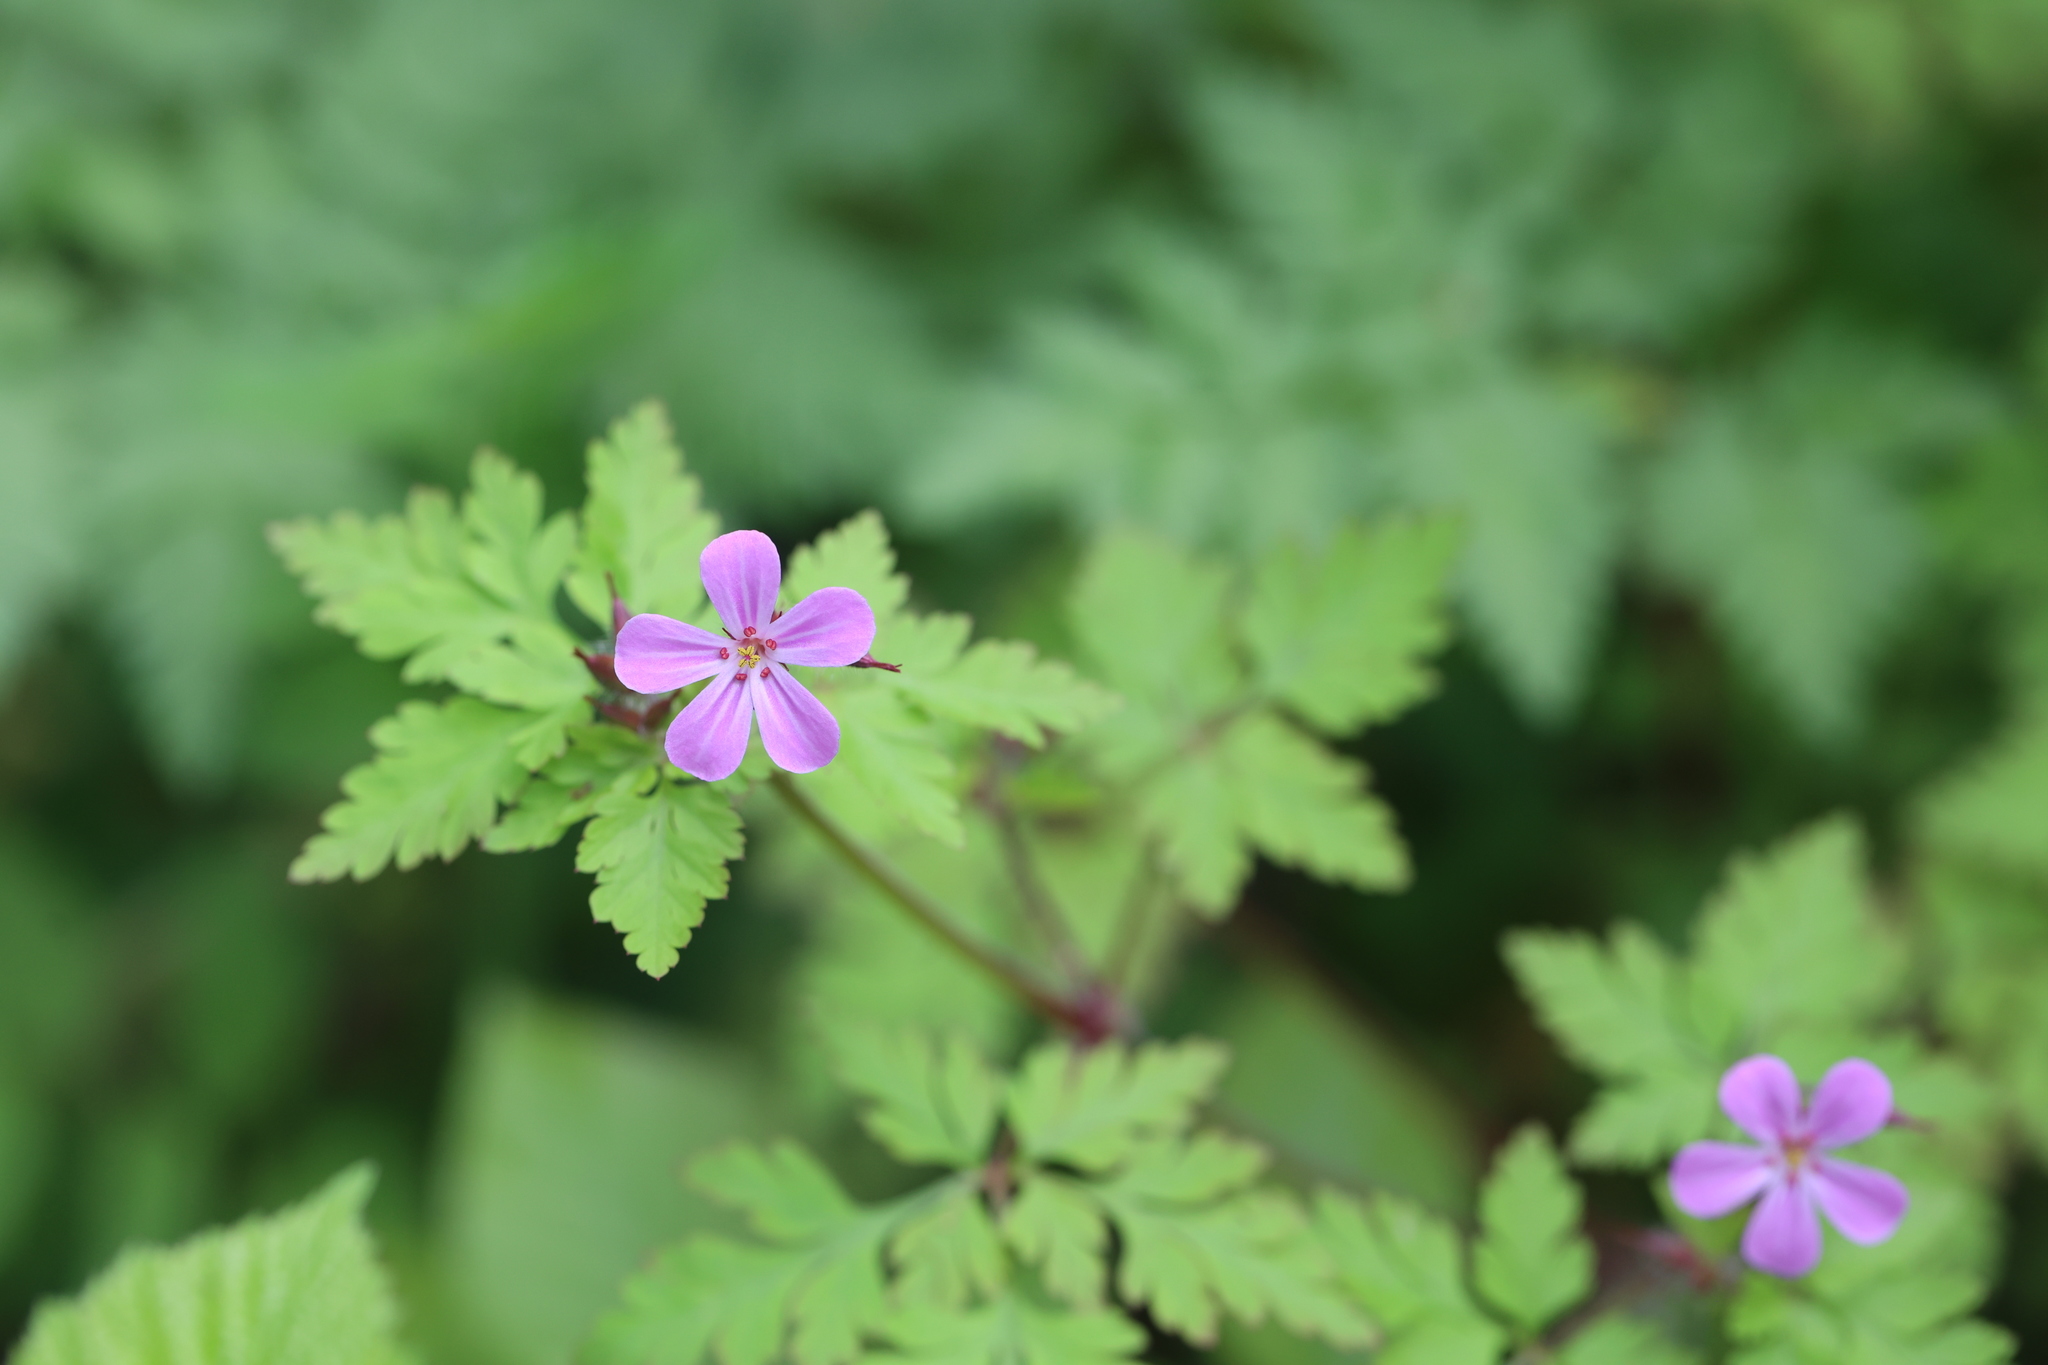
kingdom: Plantae
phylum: Tracheophyta
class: Magnoliopsida
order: Geraniales
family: Geraniaceae
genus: Geranium
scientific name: Geranium robertianum
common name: Herb-robert
